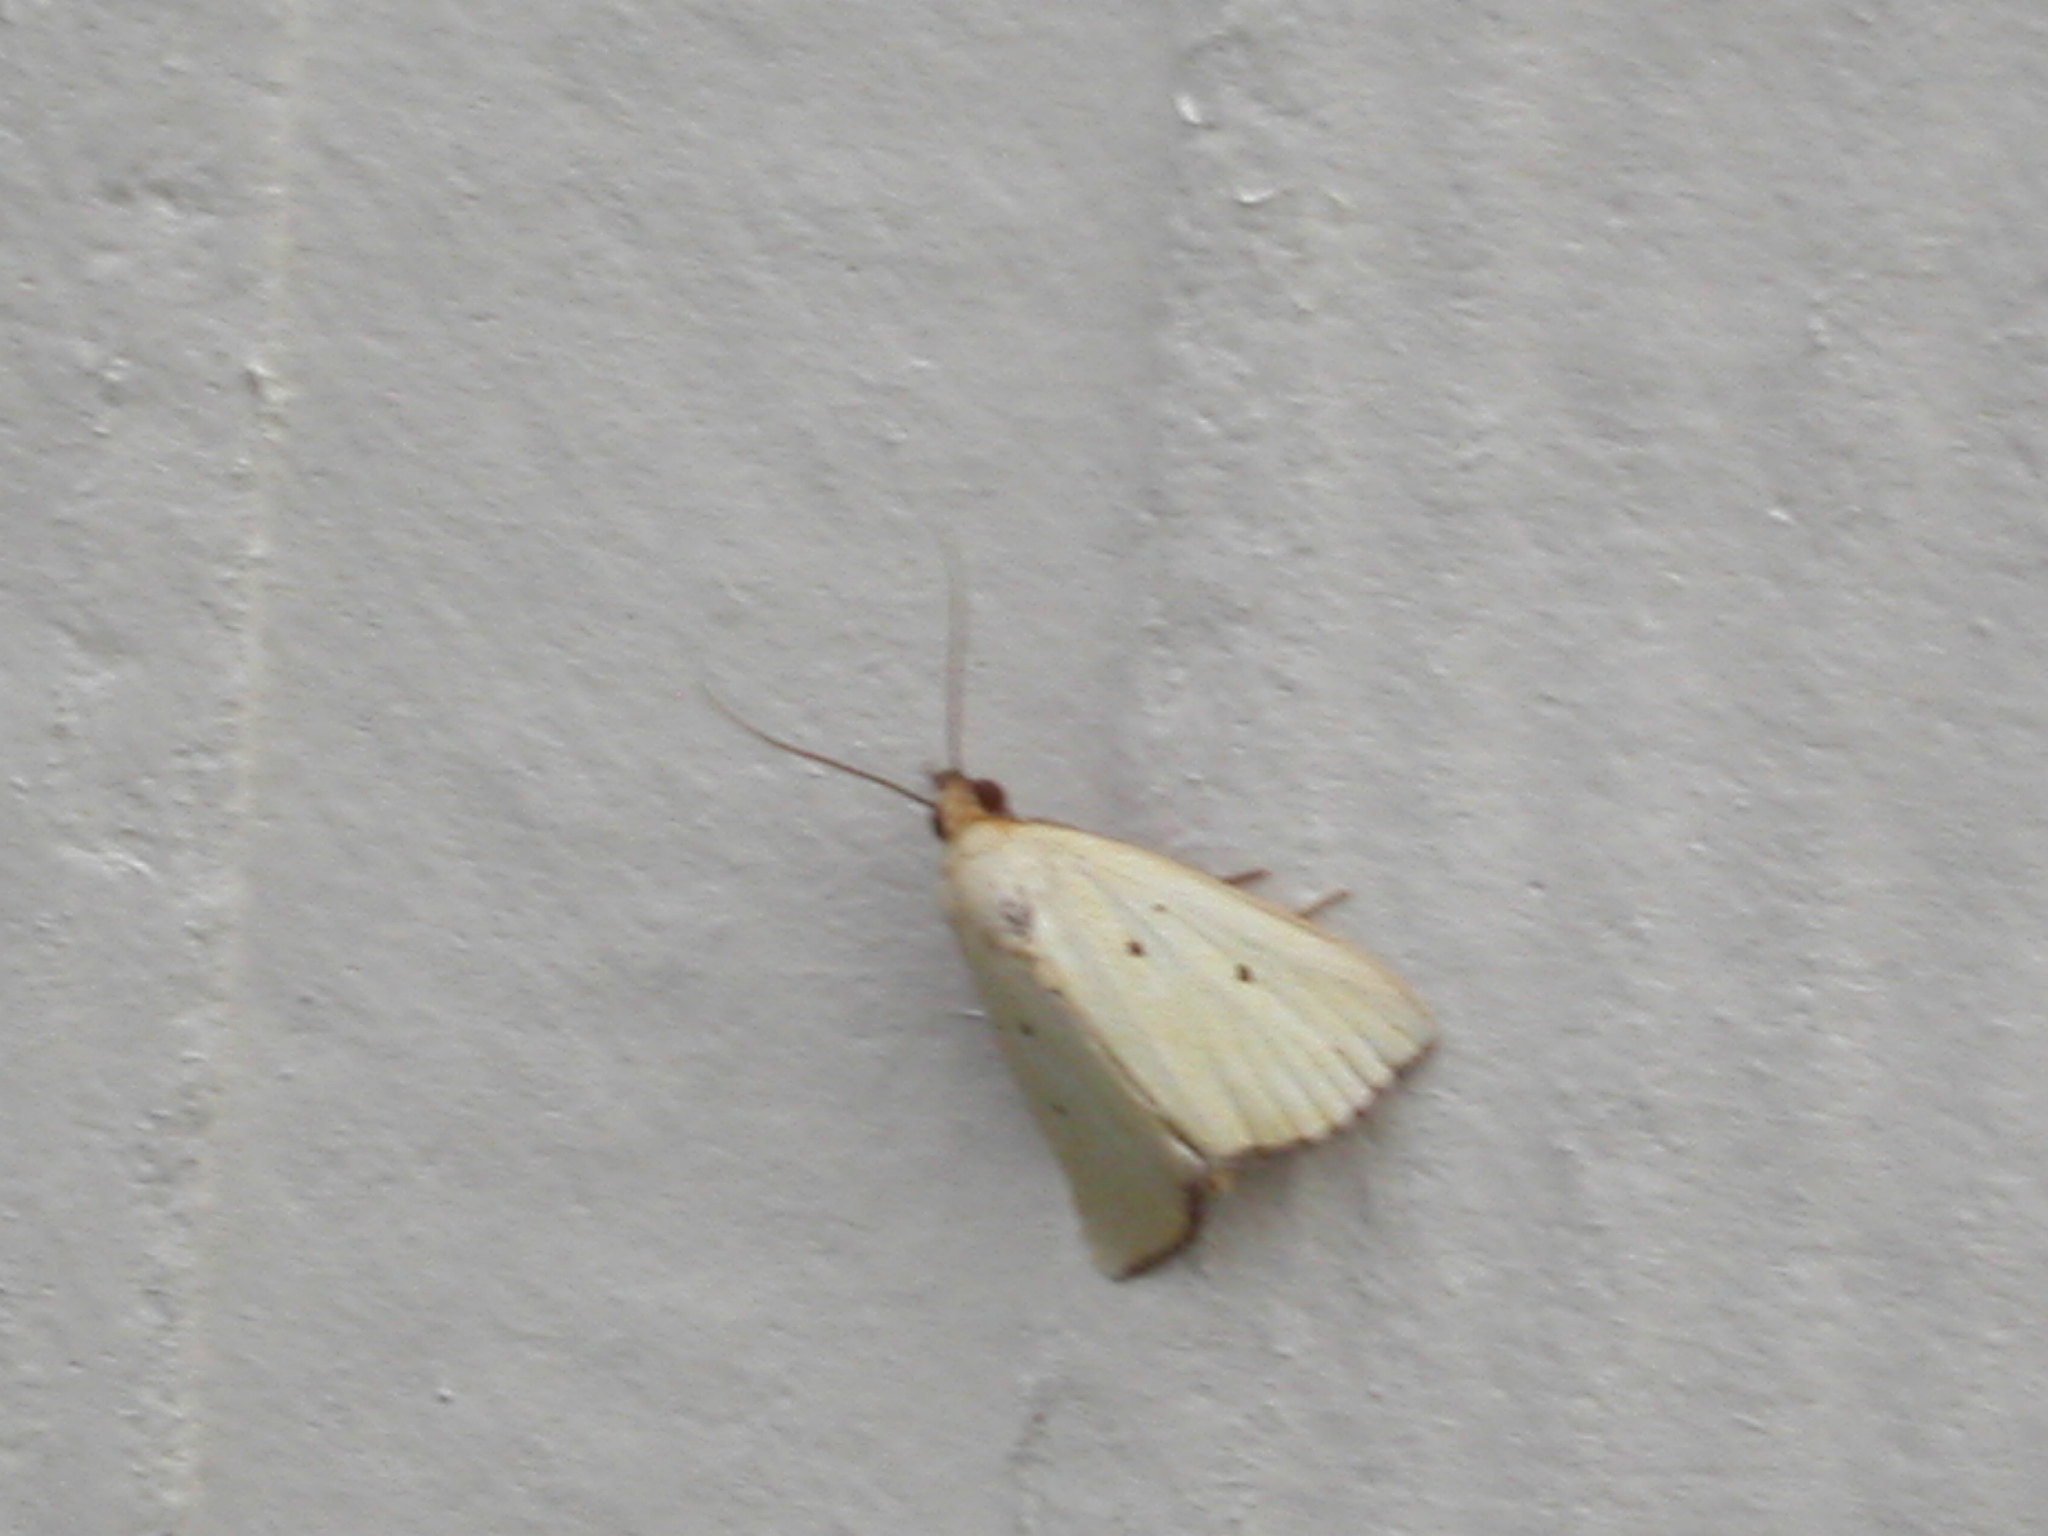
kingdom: Animalia
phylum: Arthropoda
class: Insecta
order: Lepidoptera
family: Noctuidae
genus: Marimatha
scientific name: Marimatha nigrofimbria
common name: Black-bordered lemon moth
